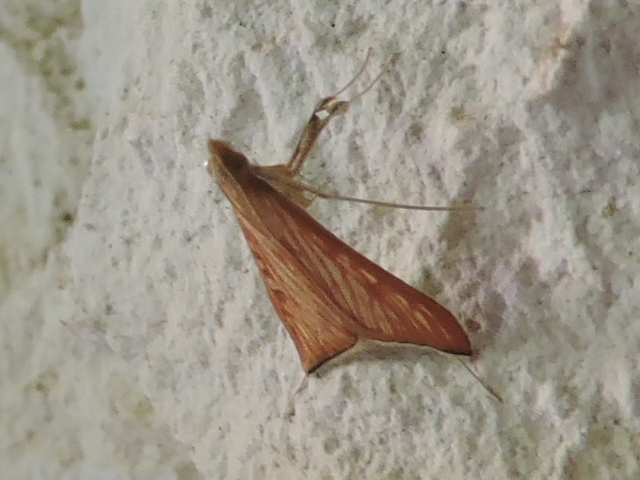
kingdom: Animalia
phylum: Arthropoda
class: Insecta
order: Lepidoptera
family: Crambidae
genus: Antigastra
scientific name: Antigastra catalaunalis
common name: Spanish dot
